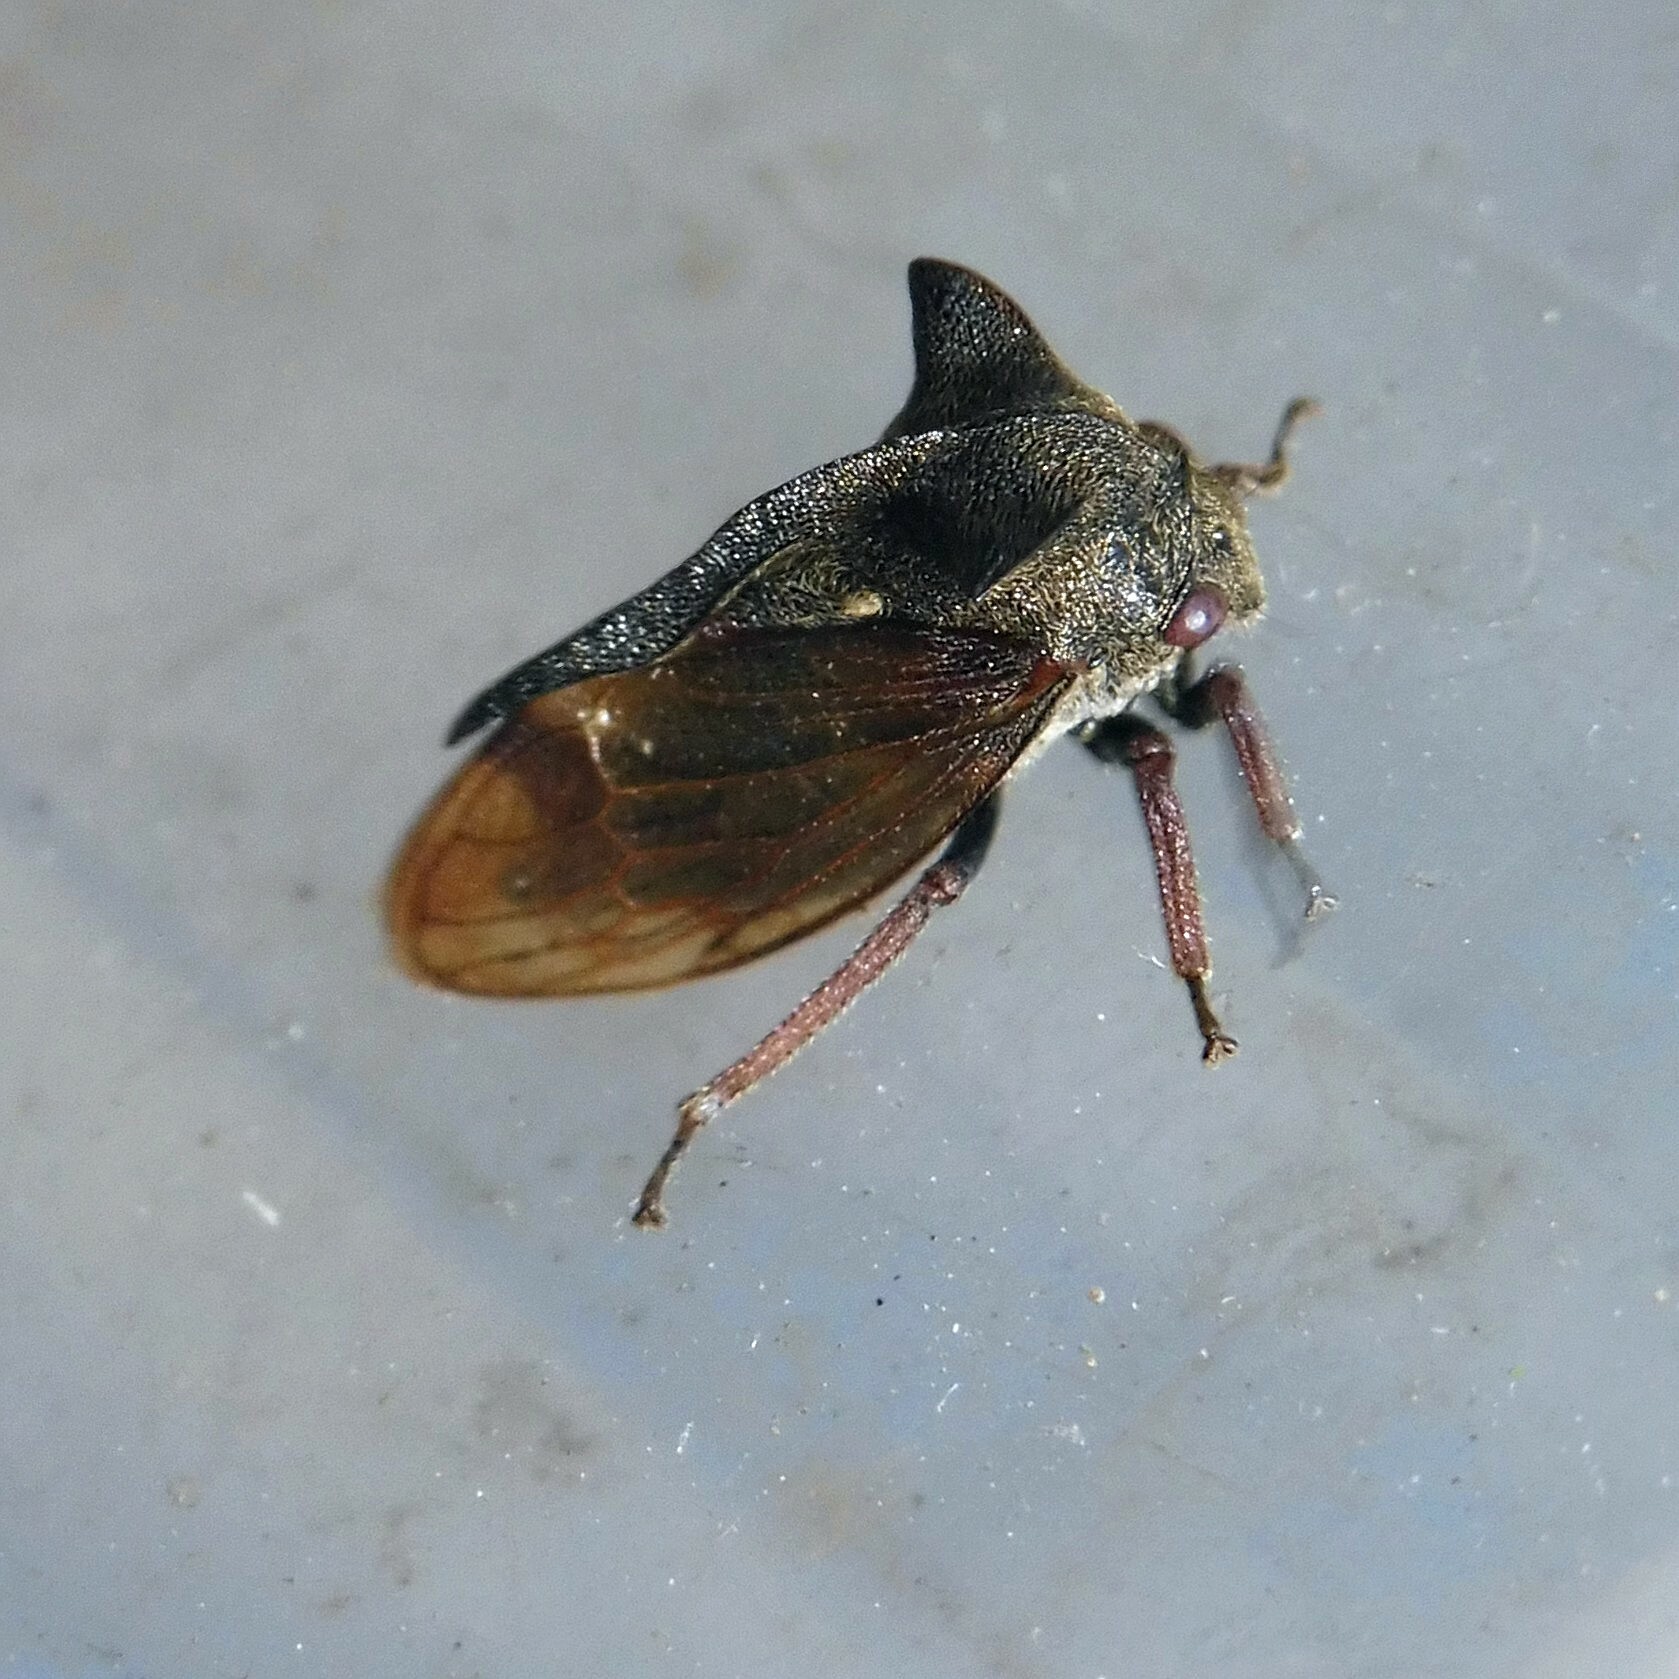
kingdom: Animalia
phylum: Arthropoda
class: Insecta
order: Hemiptera
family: Membracidae
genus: Centrotus
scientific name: Centrotus cornuta
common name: Treehopper
